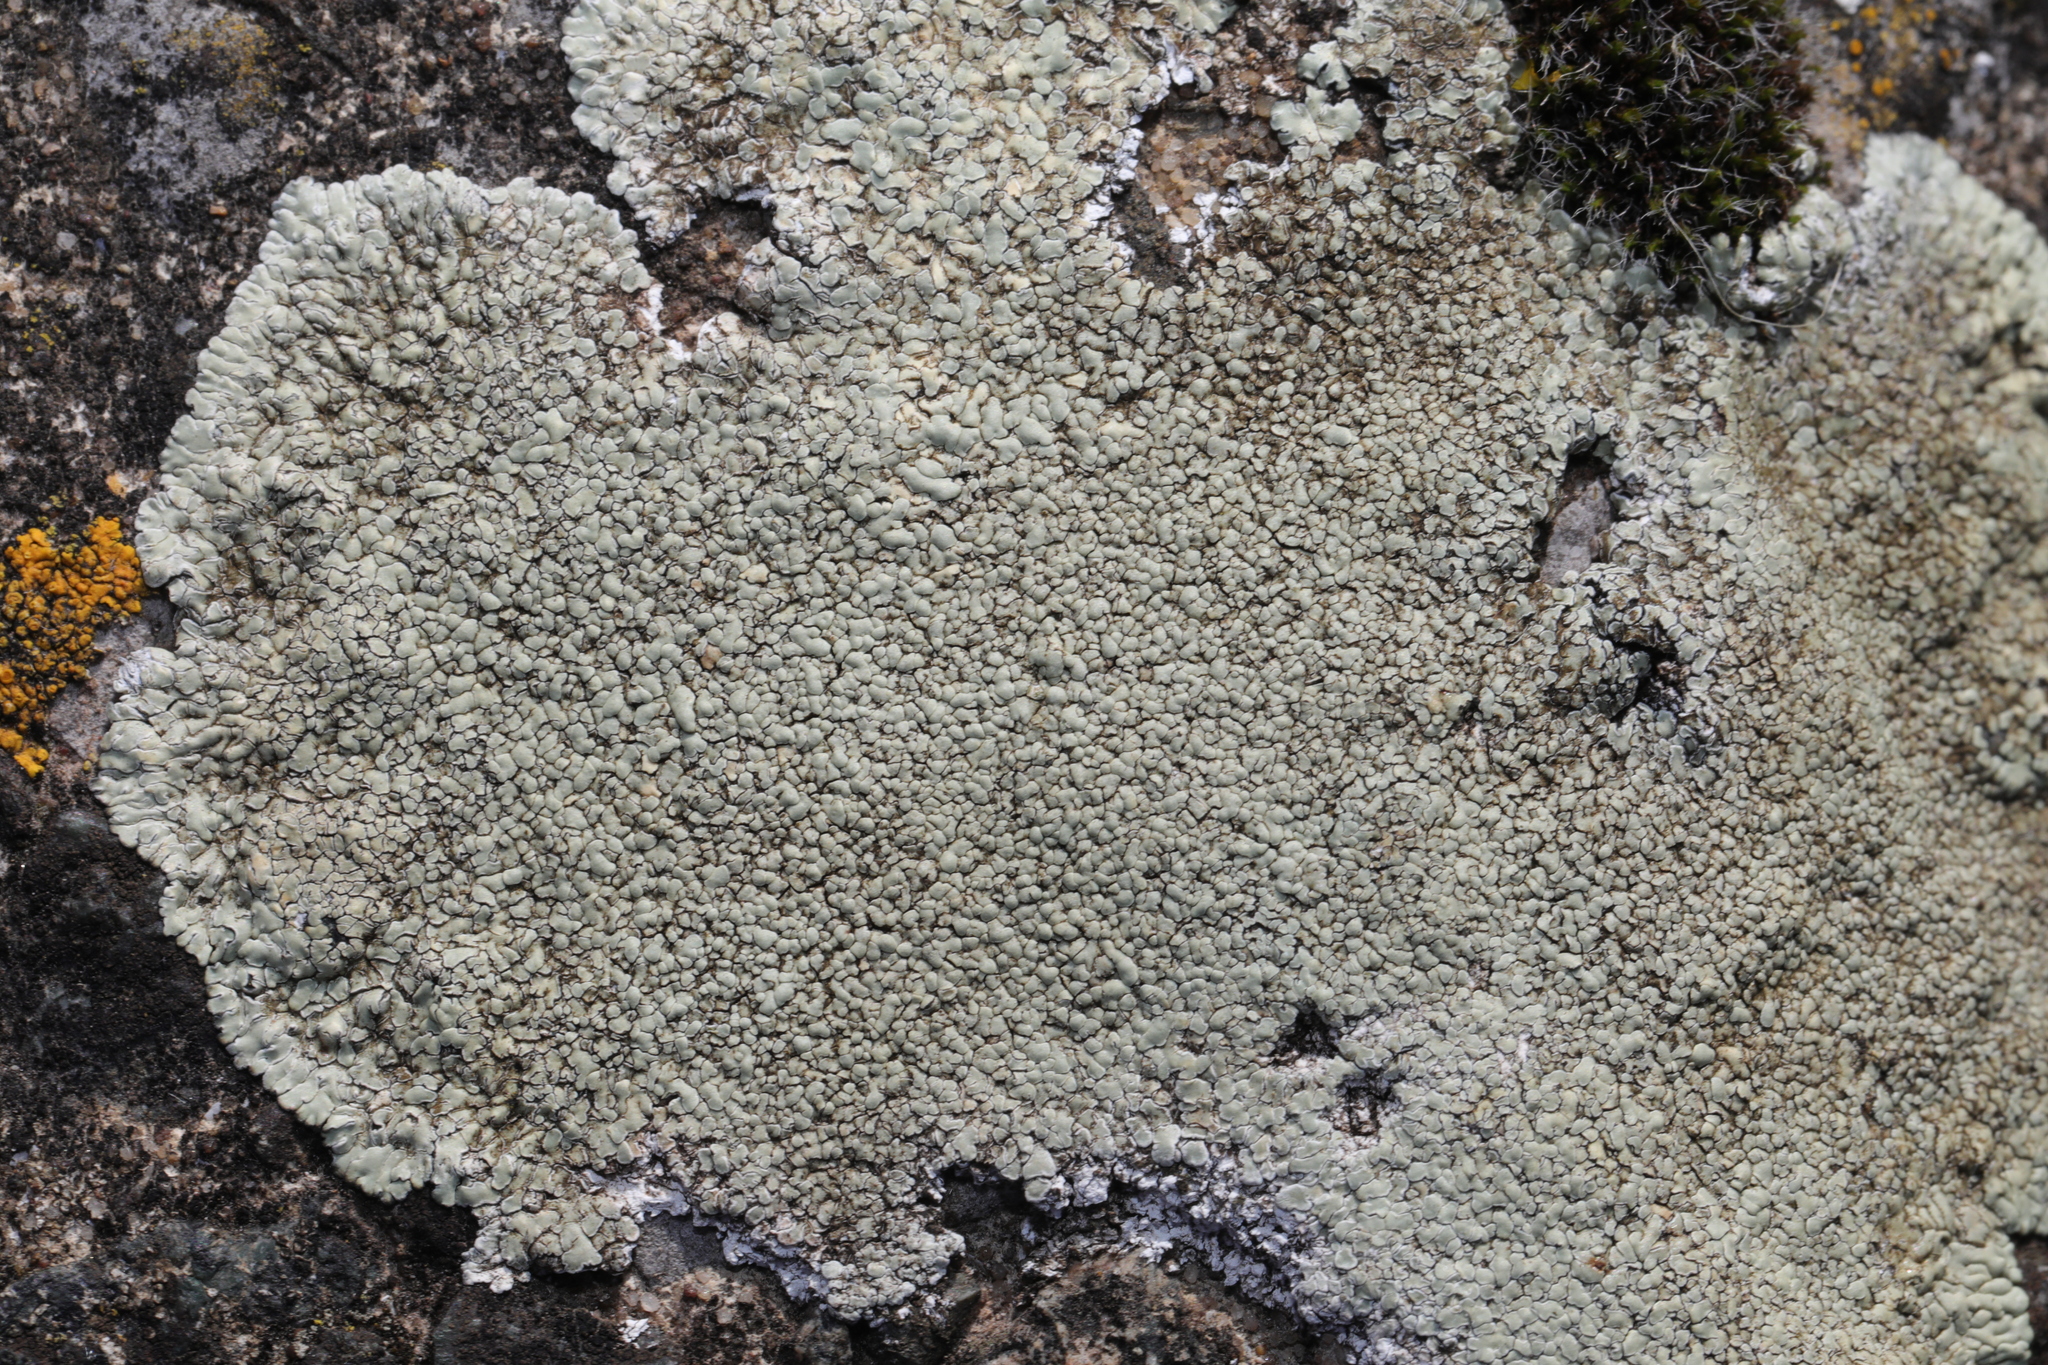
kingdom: Fungi
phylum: Ascomycota
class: Lecanoromycetes
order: Lecanorales
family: Lecanoraceae
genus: Protoparmeliopsis
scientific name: Protoparmeliopsis muralis
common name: Stonewall rim lichen
